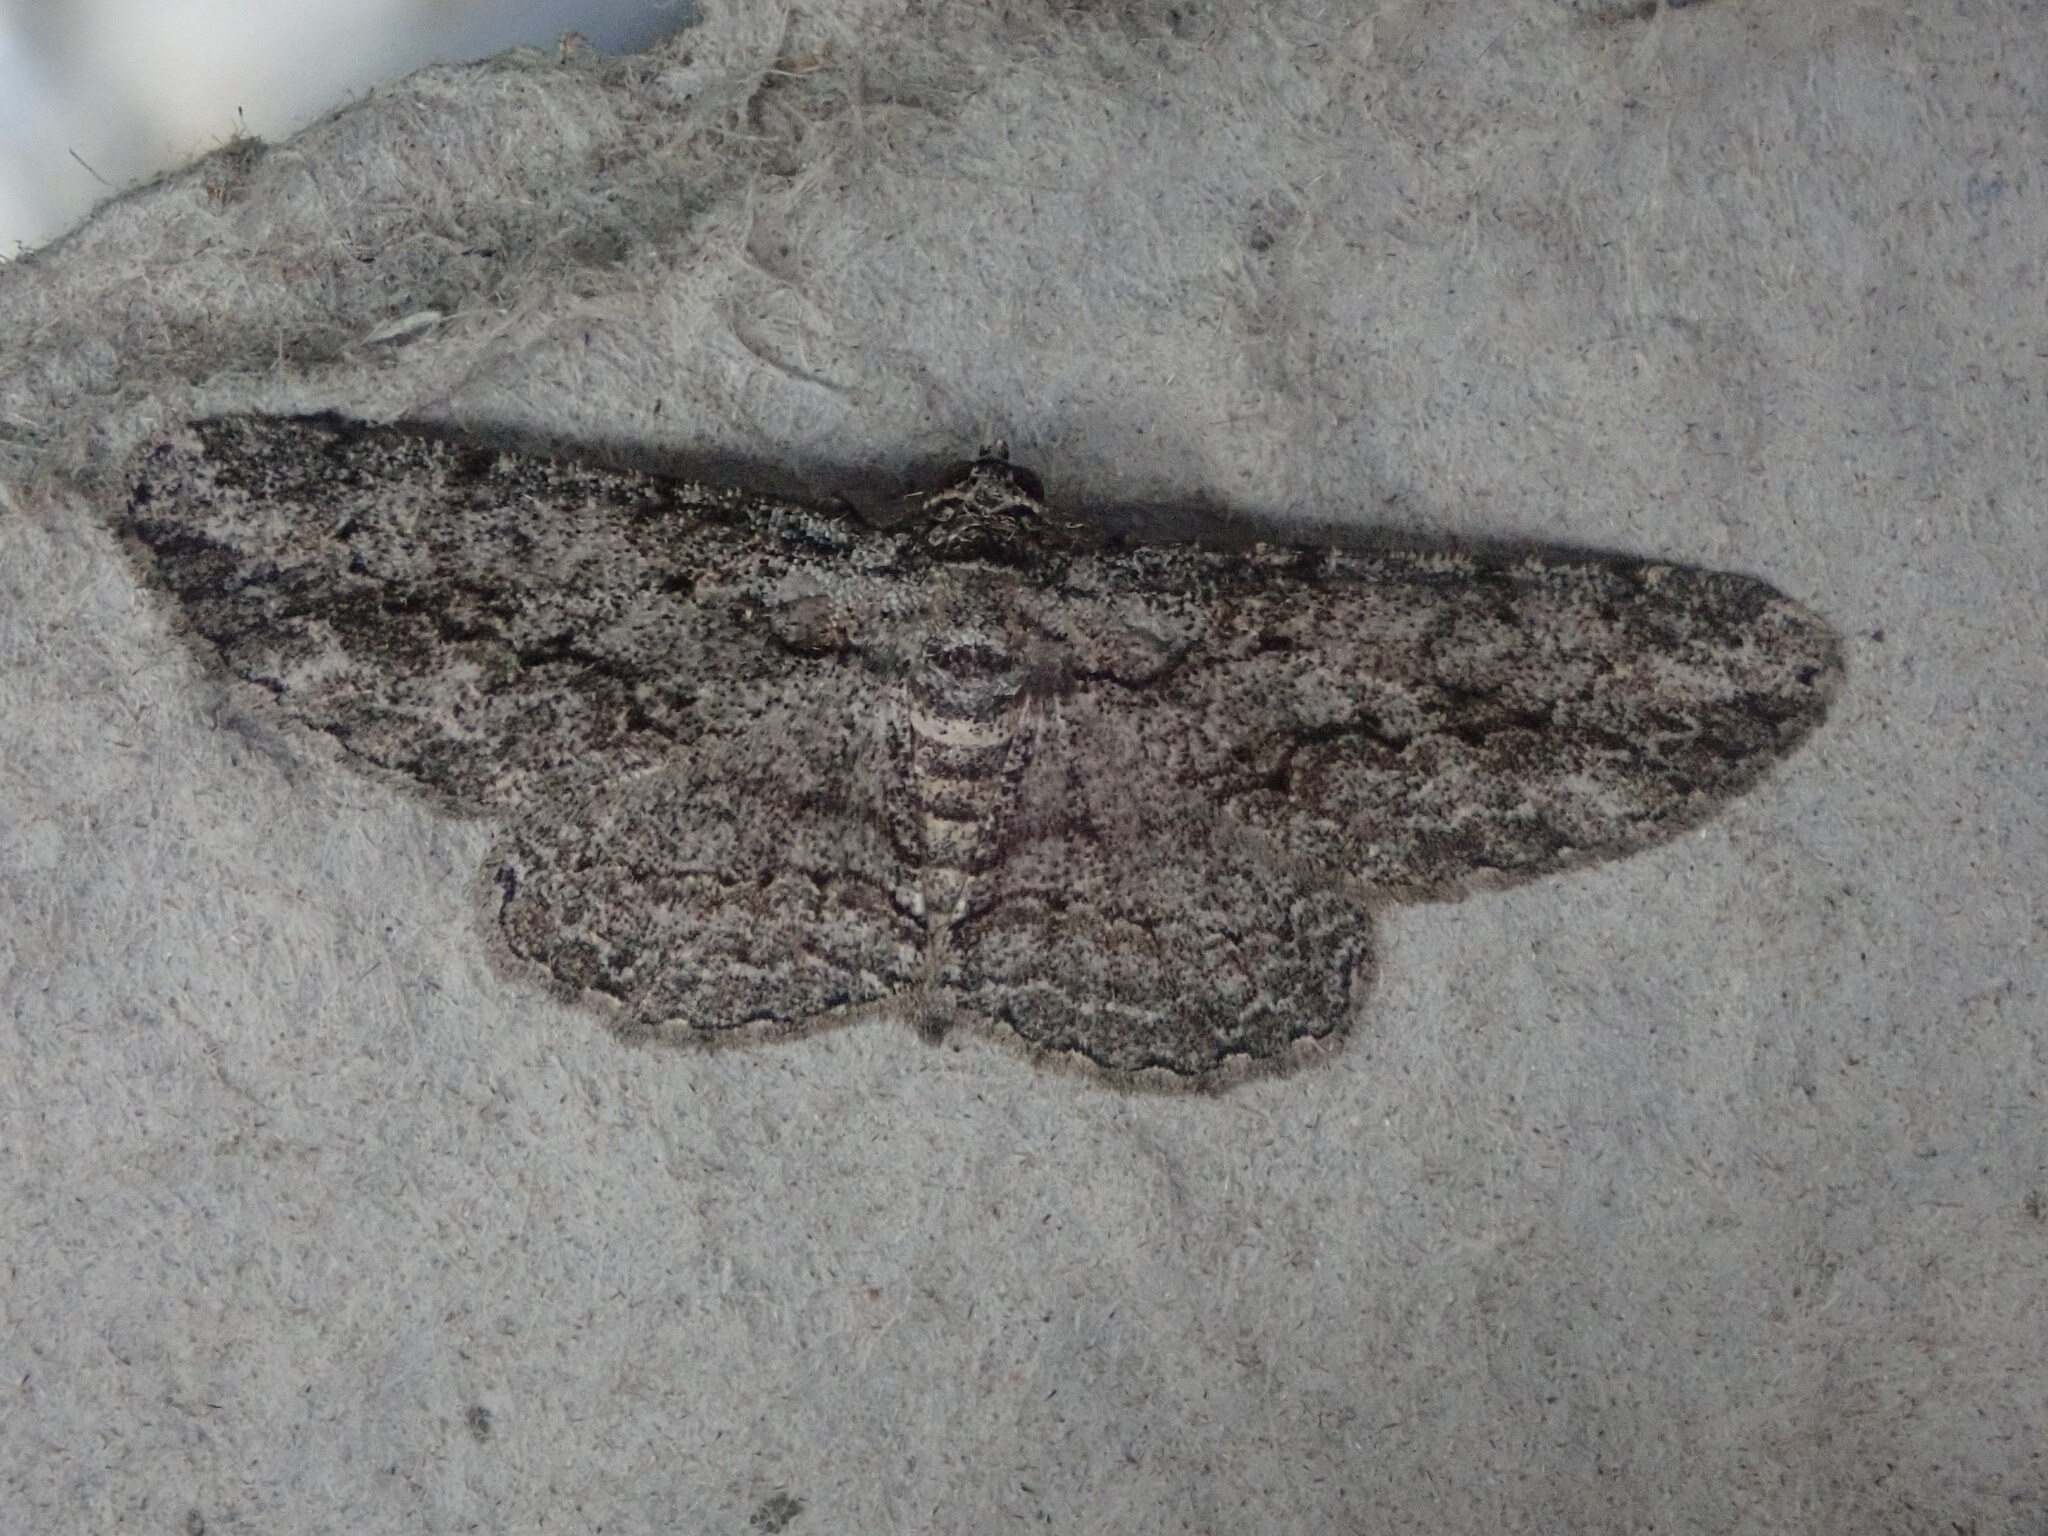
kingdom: Animalia
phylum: Arthropoda
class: Insecta
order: Lepidoptera
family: Geometridae
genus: Anavitrinella
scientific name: Anavitrinella pampinaria
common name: Common gray
